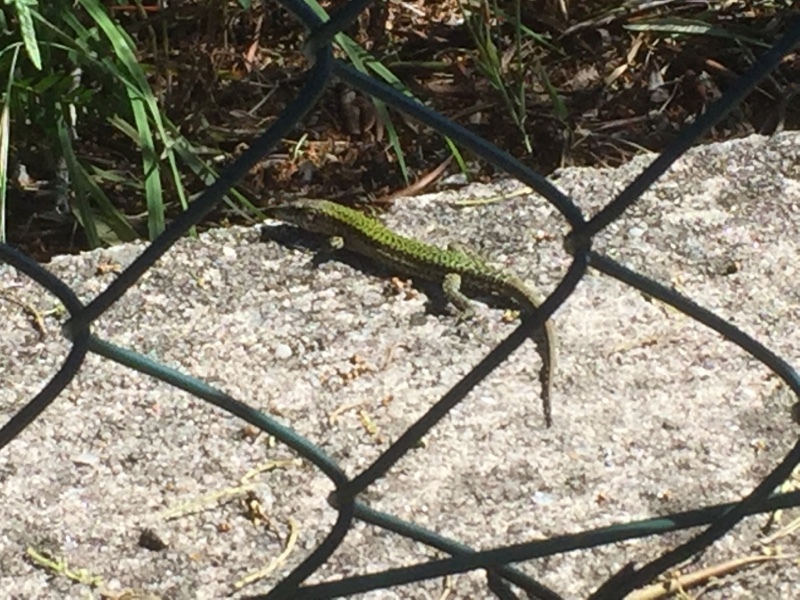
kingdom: Animalia
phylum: Chordata
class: Squamata
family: Lacertidae
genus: Podarcis
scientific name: Podarcis bocagei
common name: Bocage's wall lizard
